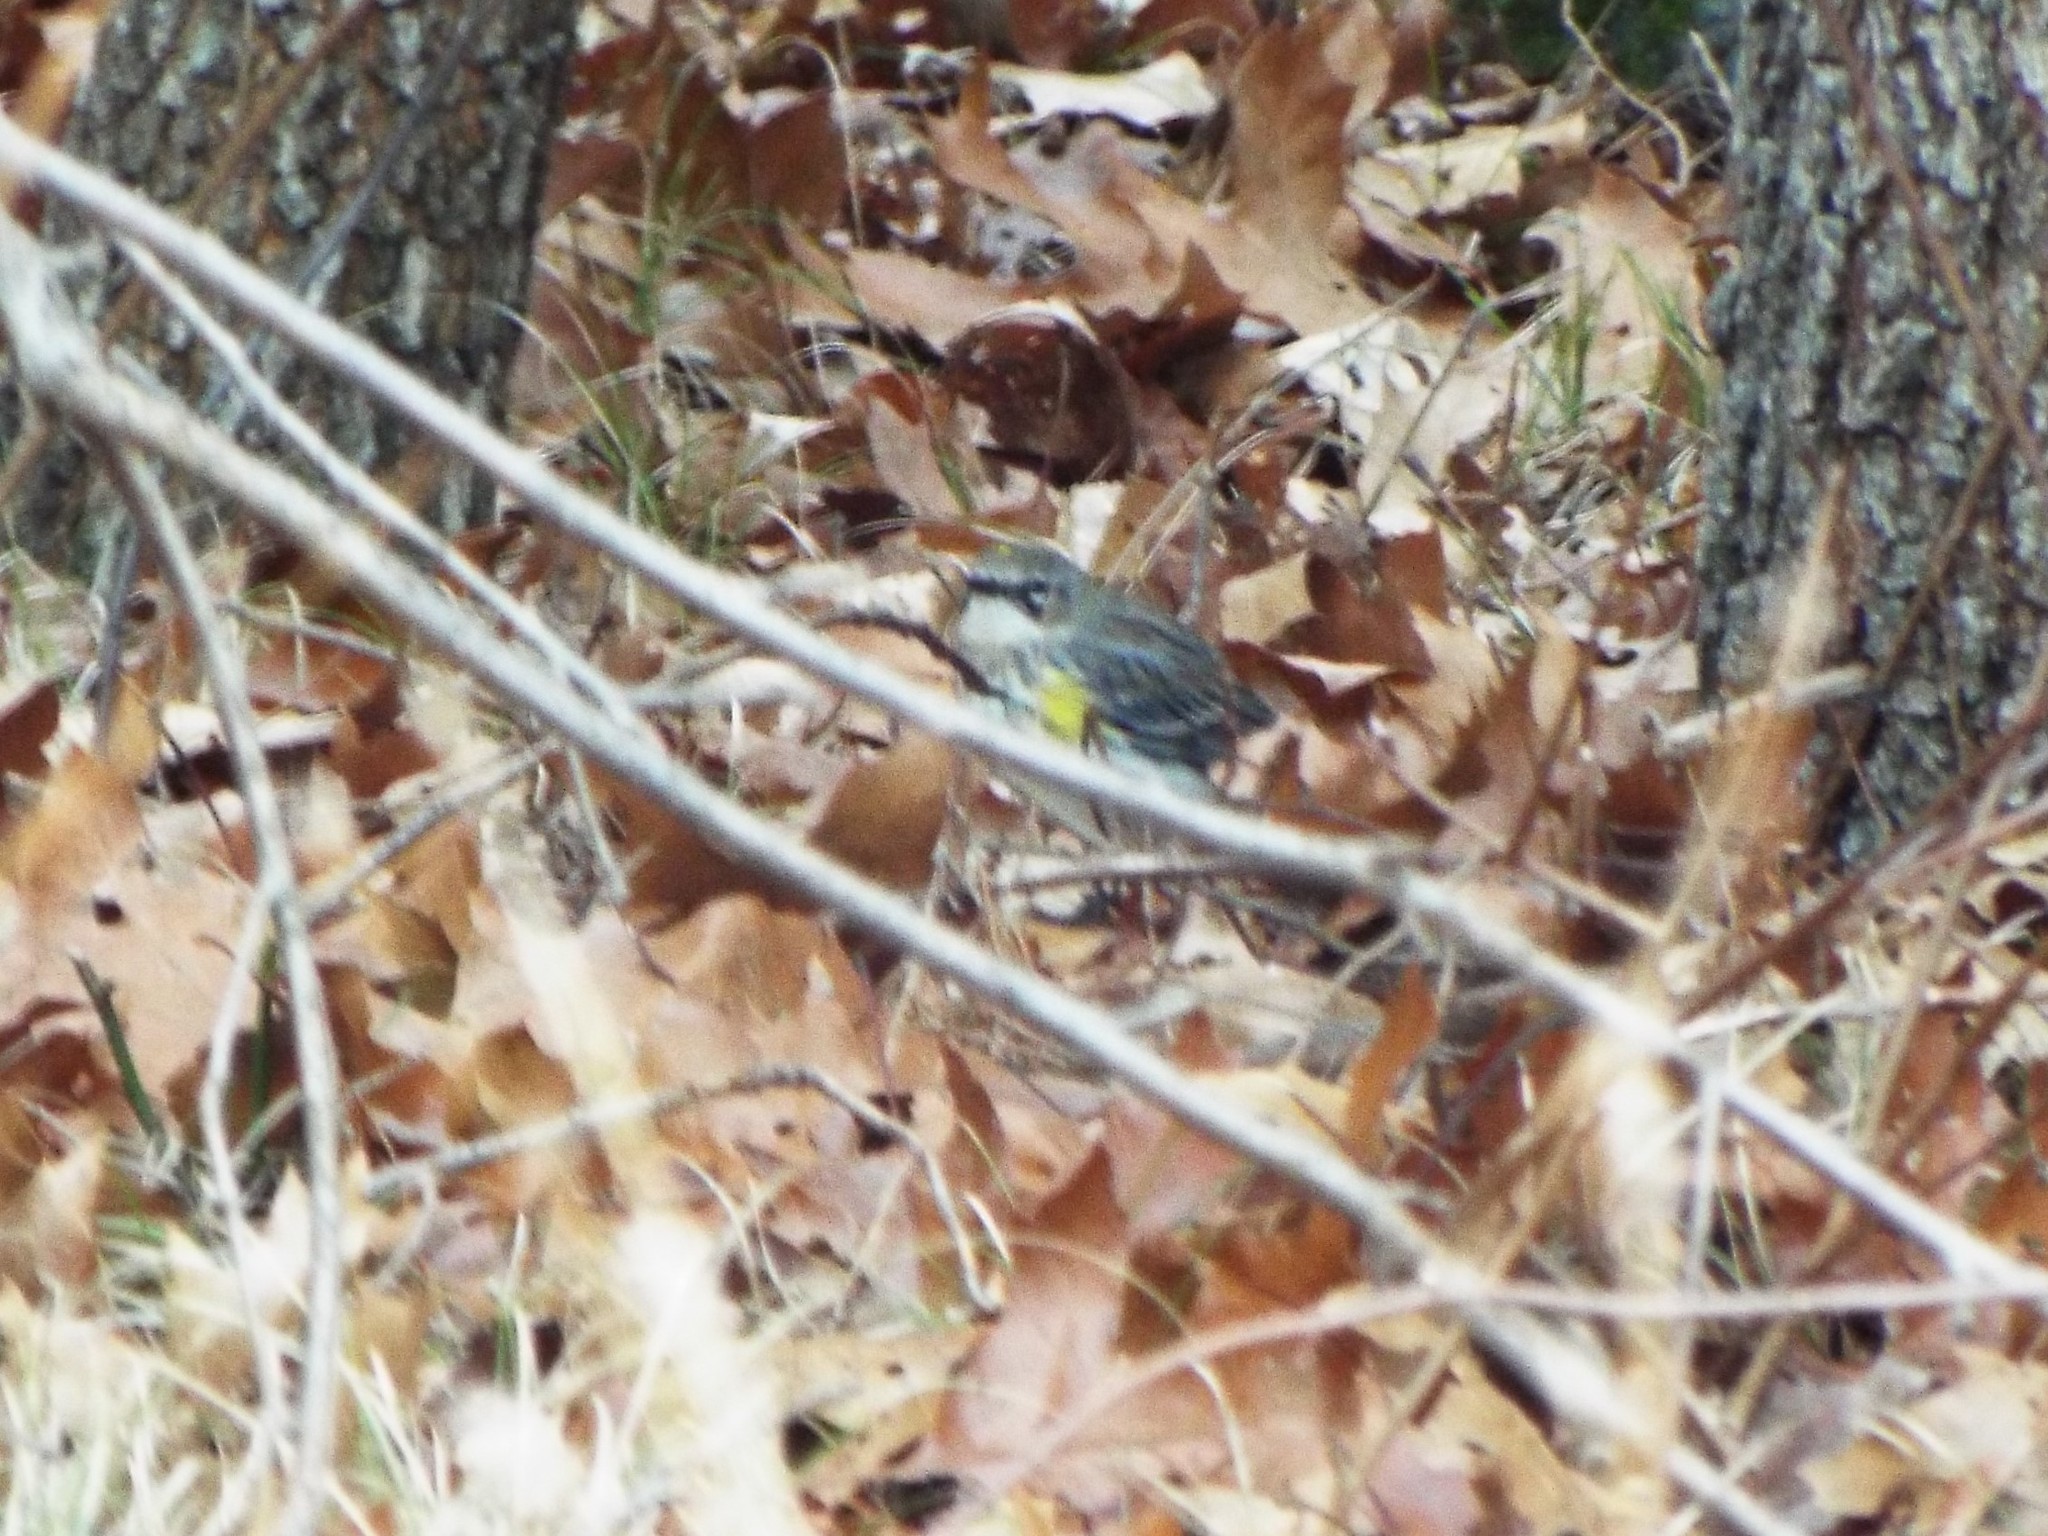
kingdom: Animalia
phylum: Chordata
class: Aves
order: Passeriformes
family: Parulidae
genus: Setophaga
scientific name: Setophaga coronata
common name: Myrtle warbler
